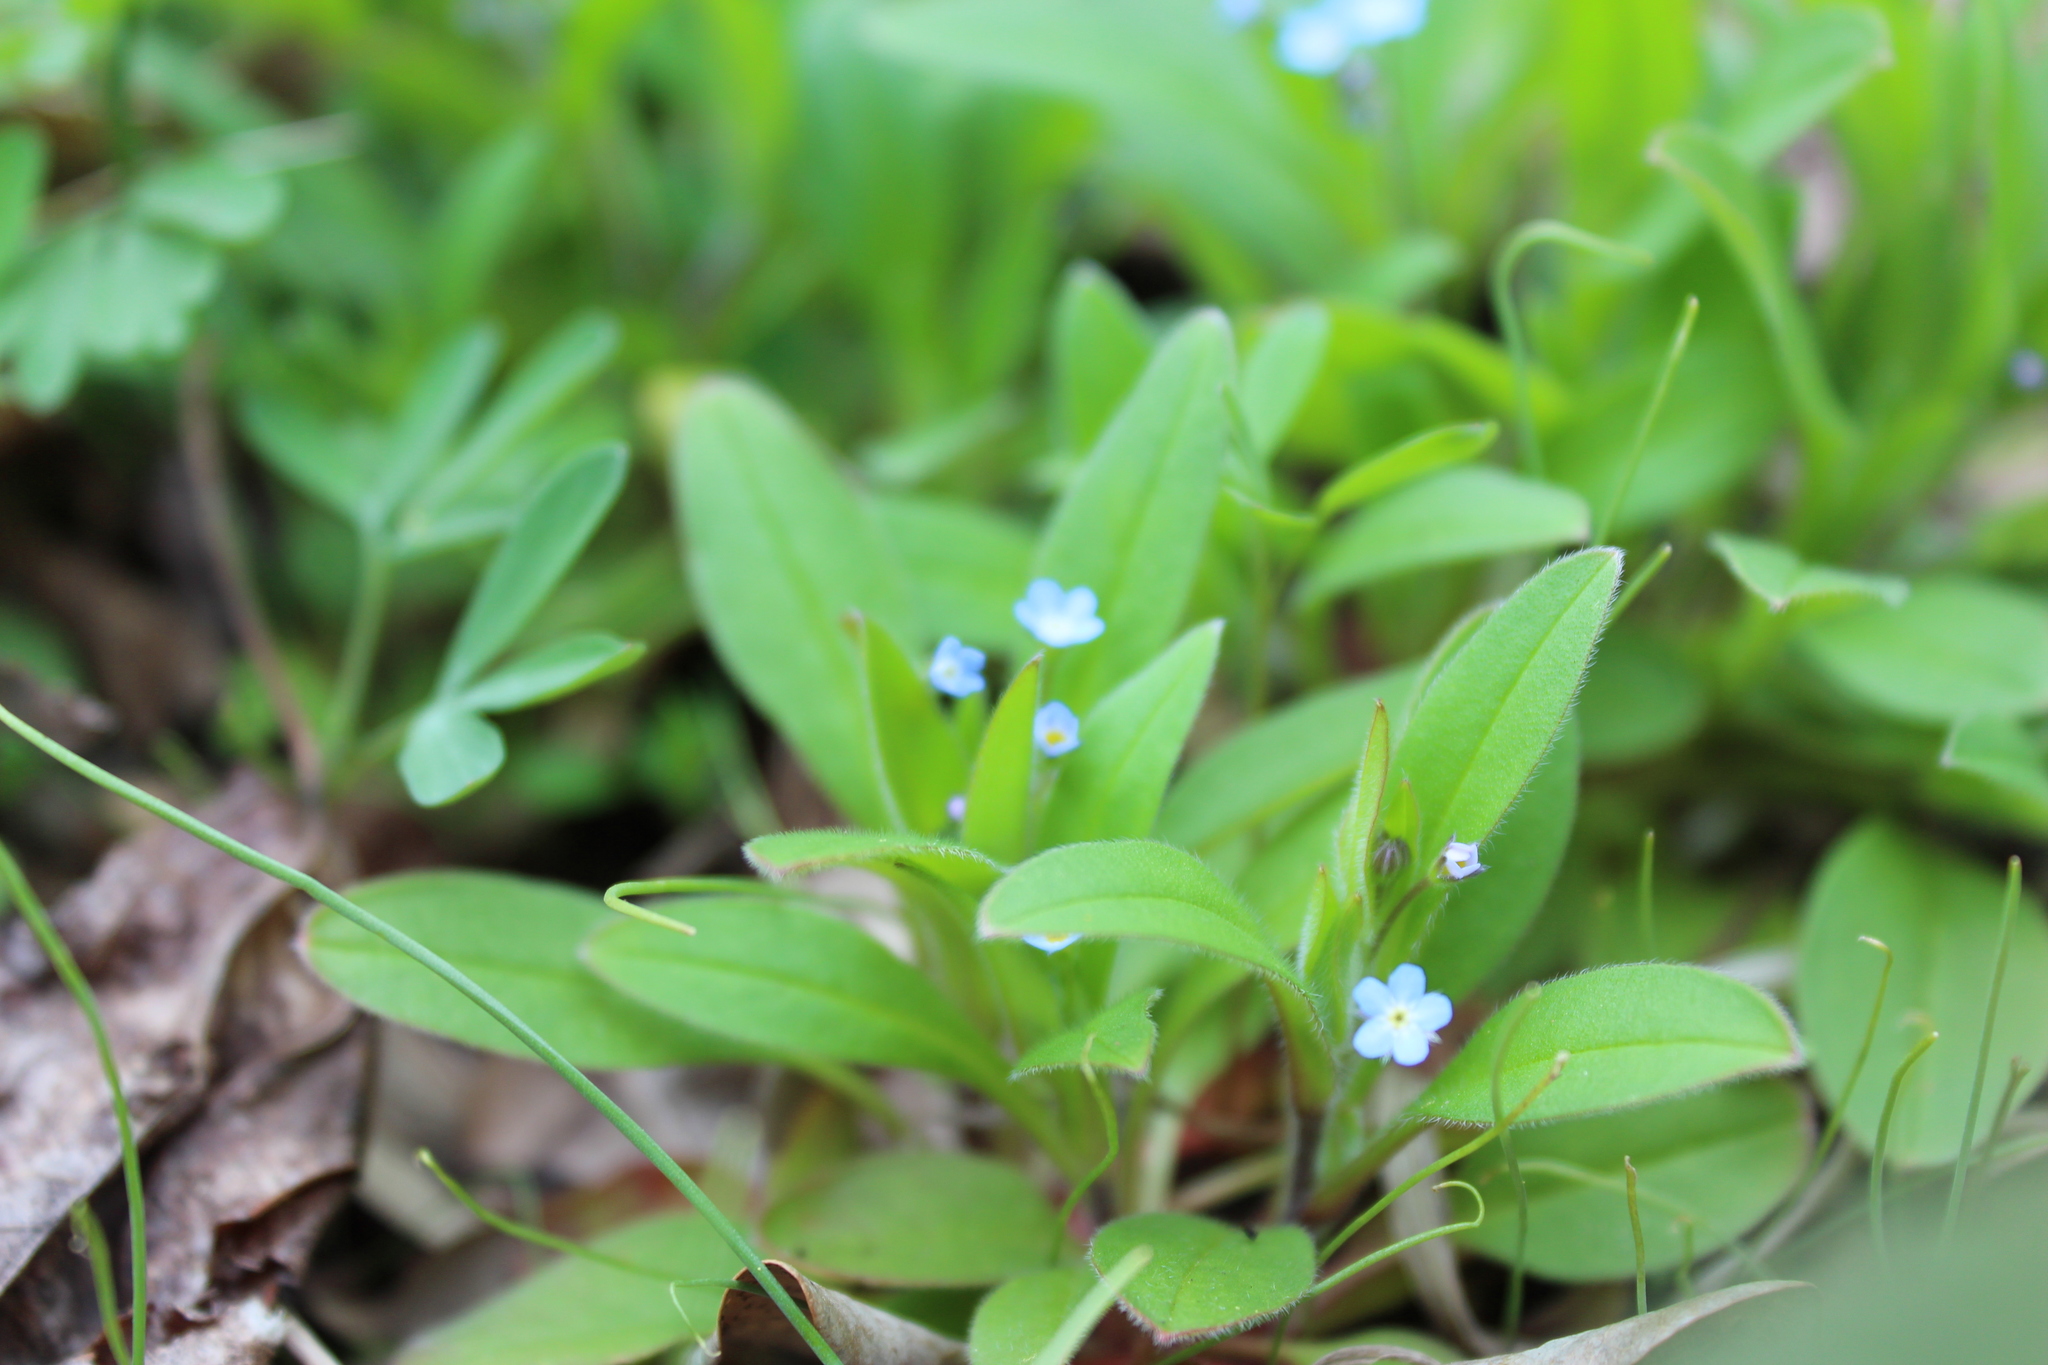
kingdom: Plantae
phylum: Tracheophyta
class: Magnoliopsida
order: Boraginales
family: Boraginaceae
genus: Myosotis
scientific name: Myosotis sparsiflora
